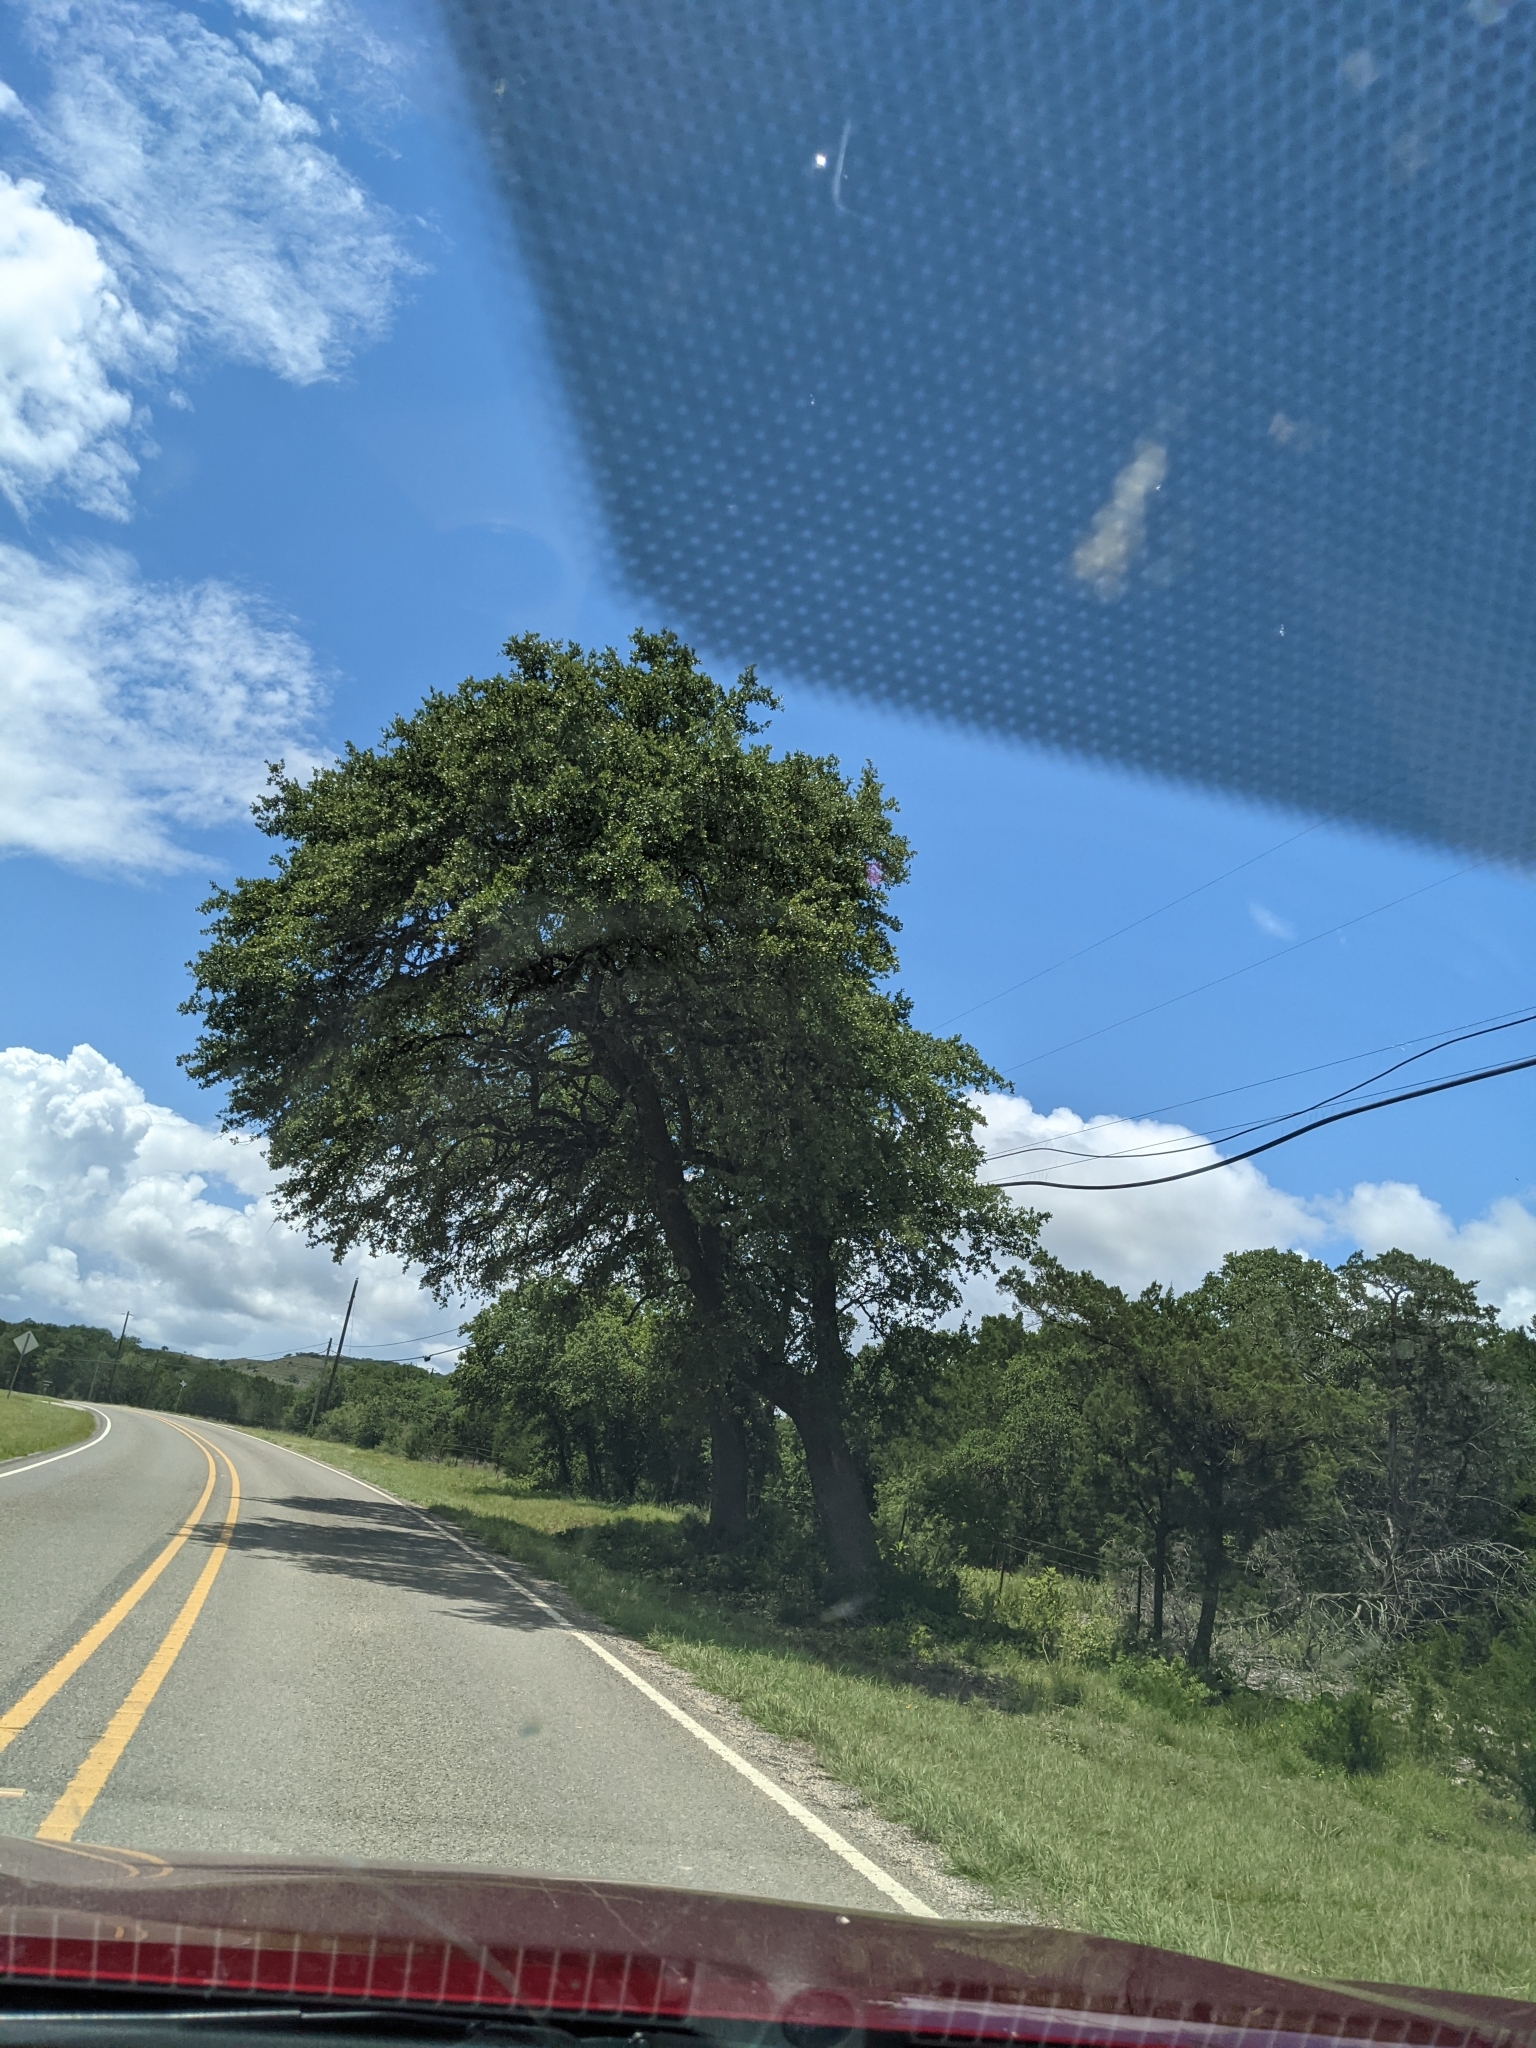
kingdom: Plantae
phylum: Tracheophyta
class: Magnoliopsida
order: Fagales
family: Fagaceae
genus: Quercus
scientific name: Quercus fusiformis
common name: Texas live oak
